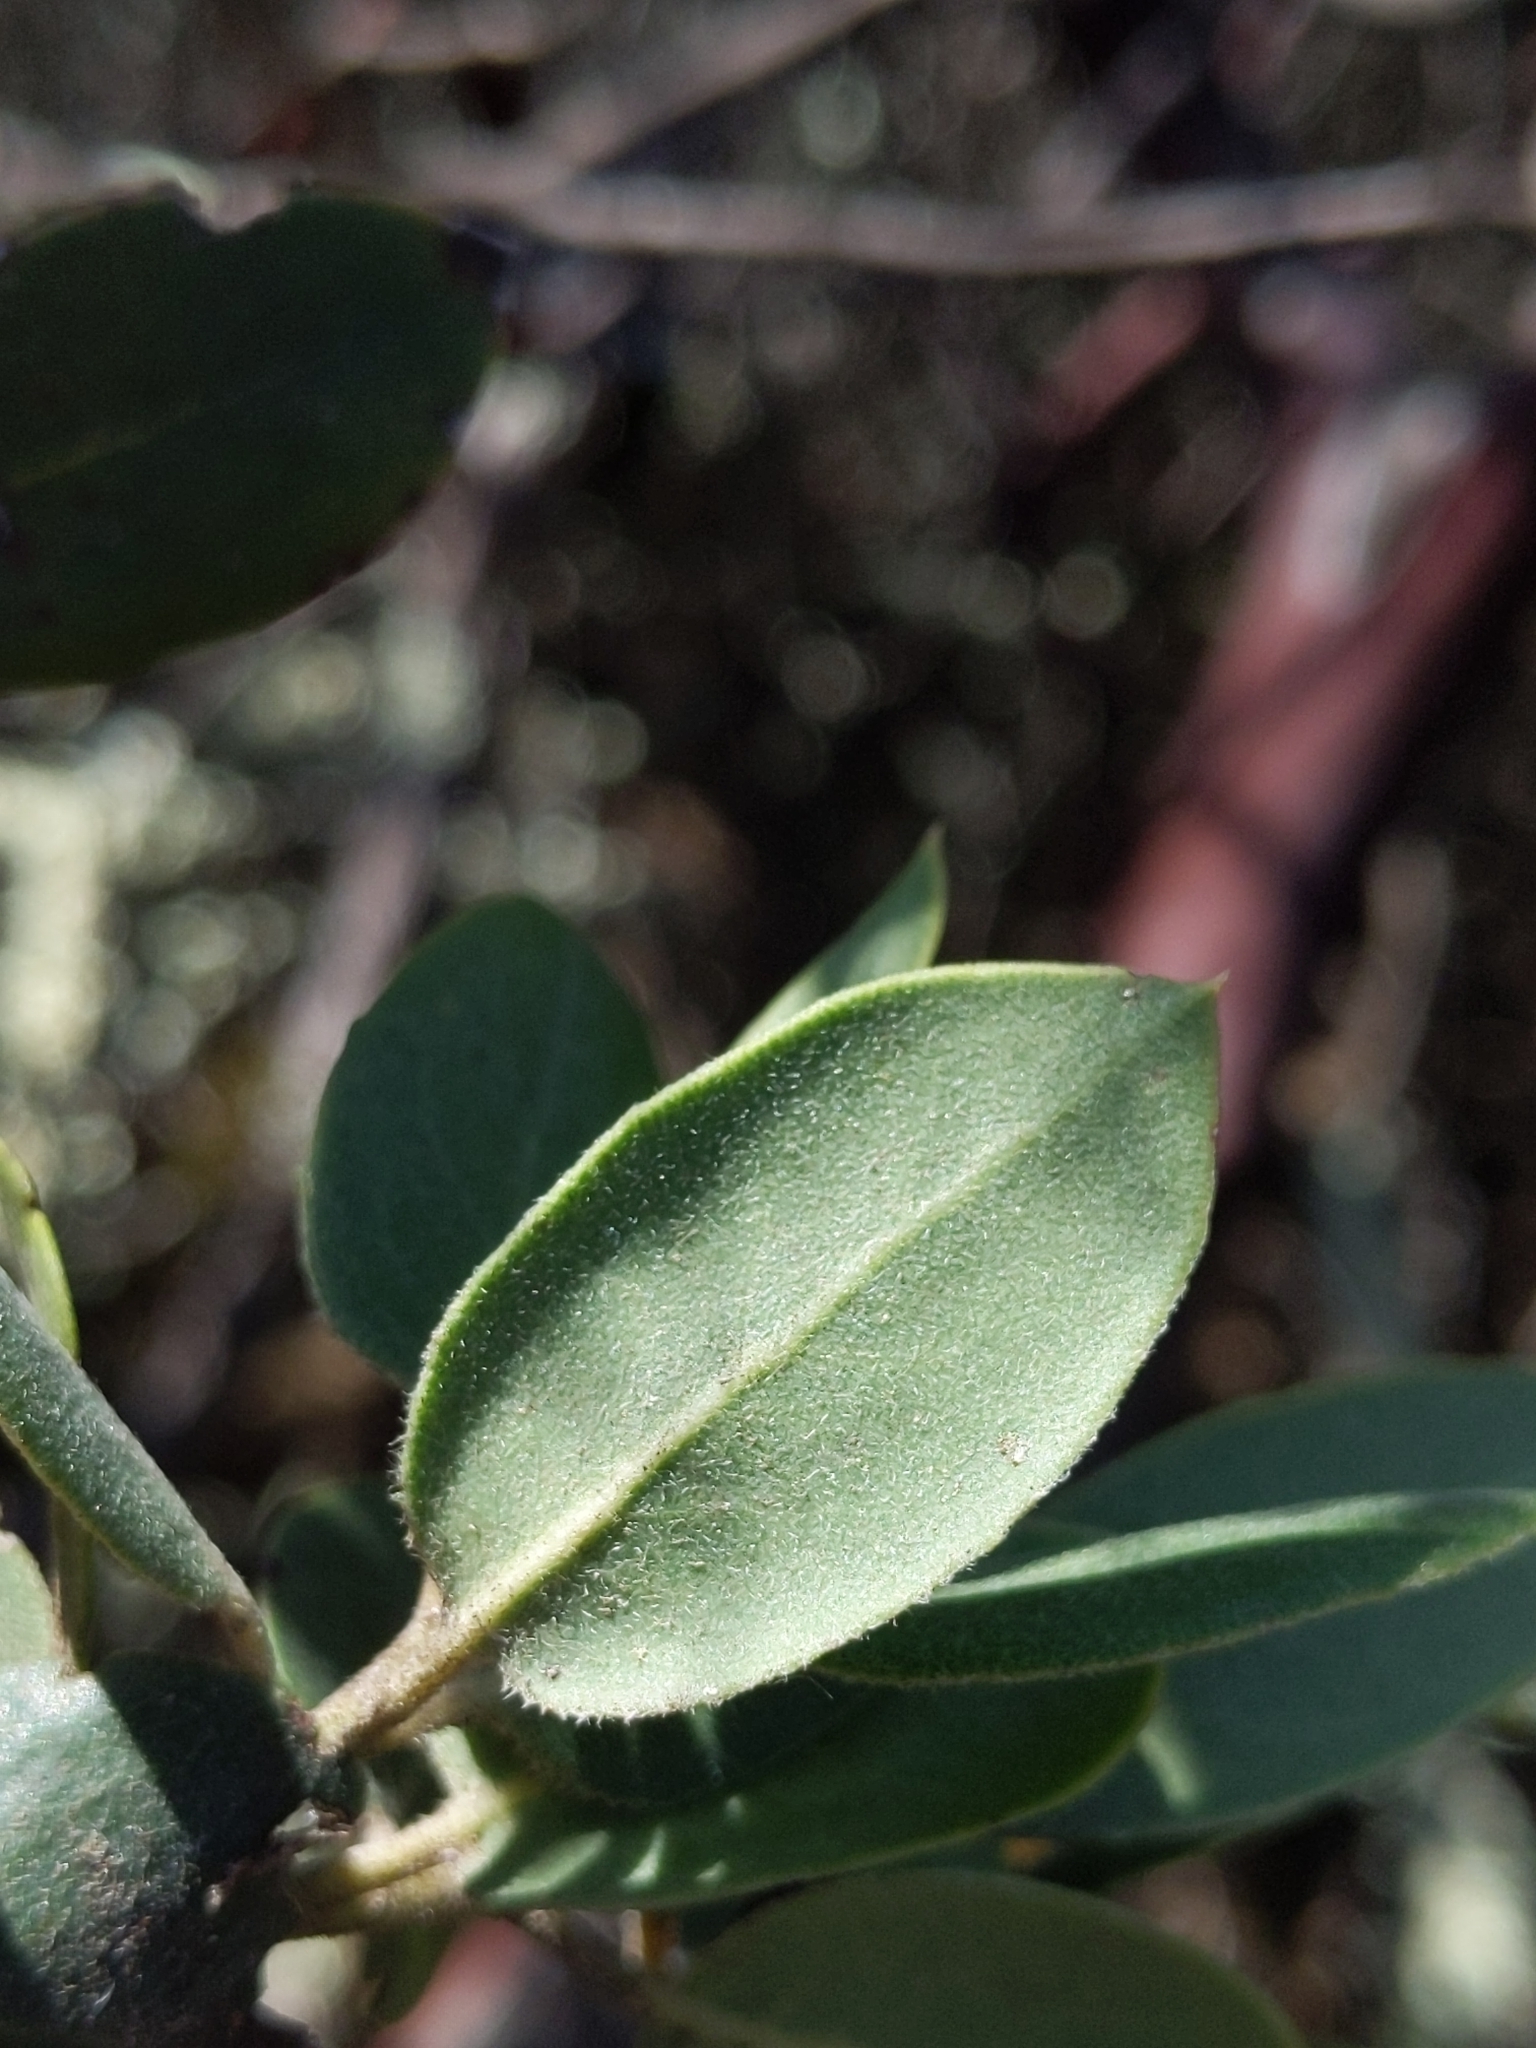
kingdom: Plantae
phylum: Tracheophyta
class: Magnoliopsida
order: Ericales
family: Ericaceae
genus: Arctostaphylos
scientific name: Arctostaphylos crustacea
